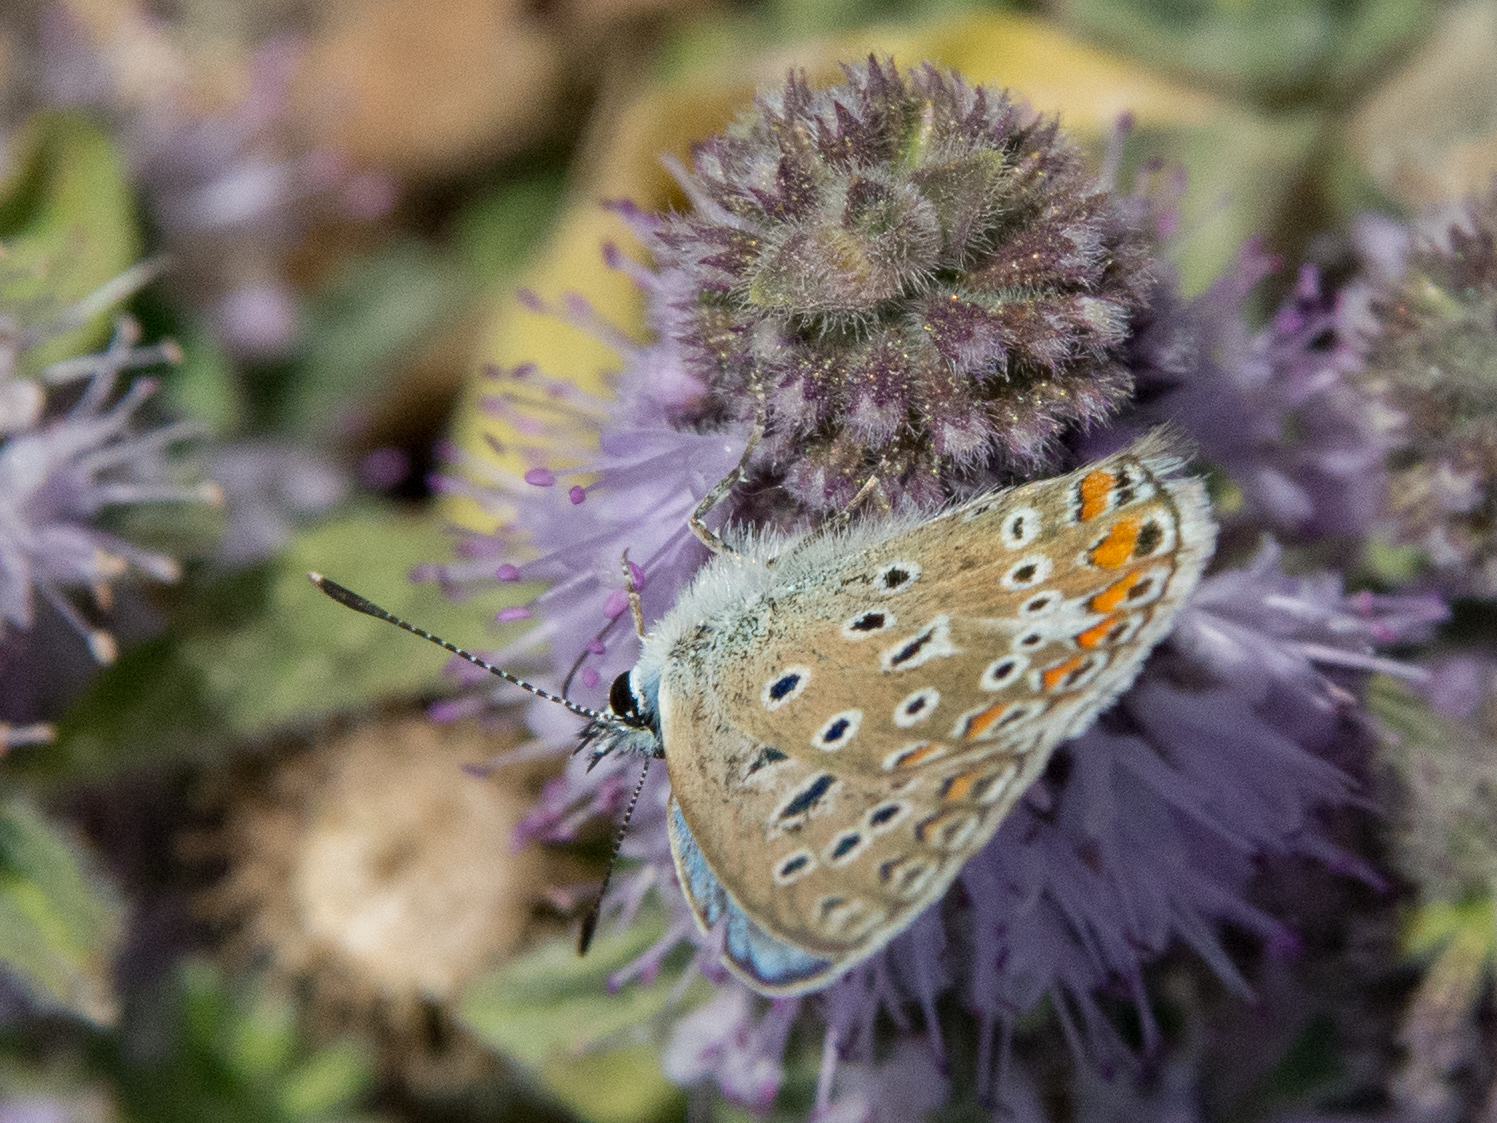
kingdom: Animalia
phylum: Arthropoda
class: Insecta
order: Lepidoptera
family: Lycaenidae
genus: Polyommatus
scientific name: Polyommatus celina
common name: Austaut's blue
